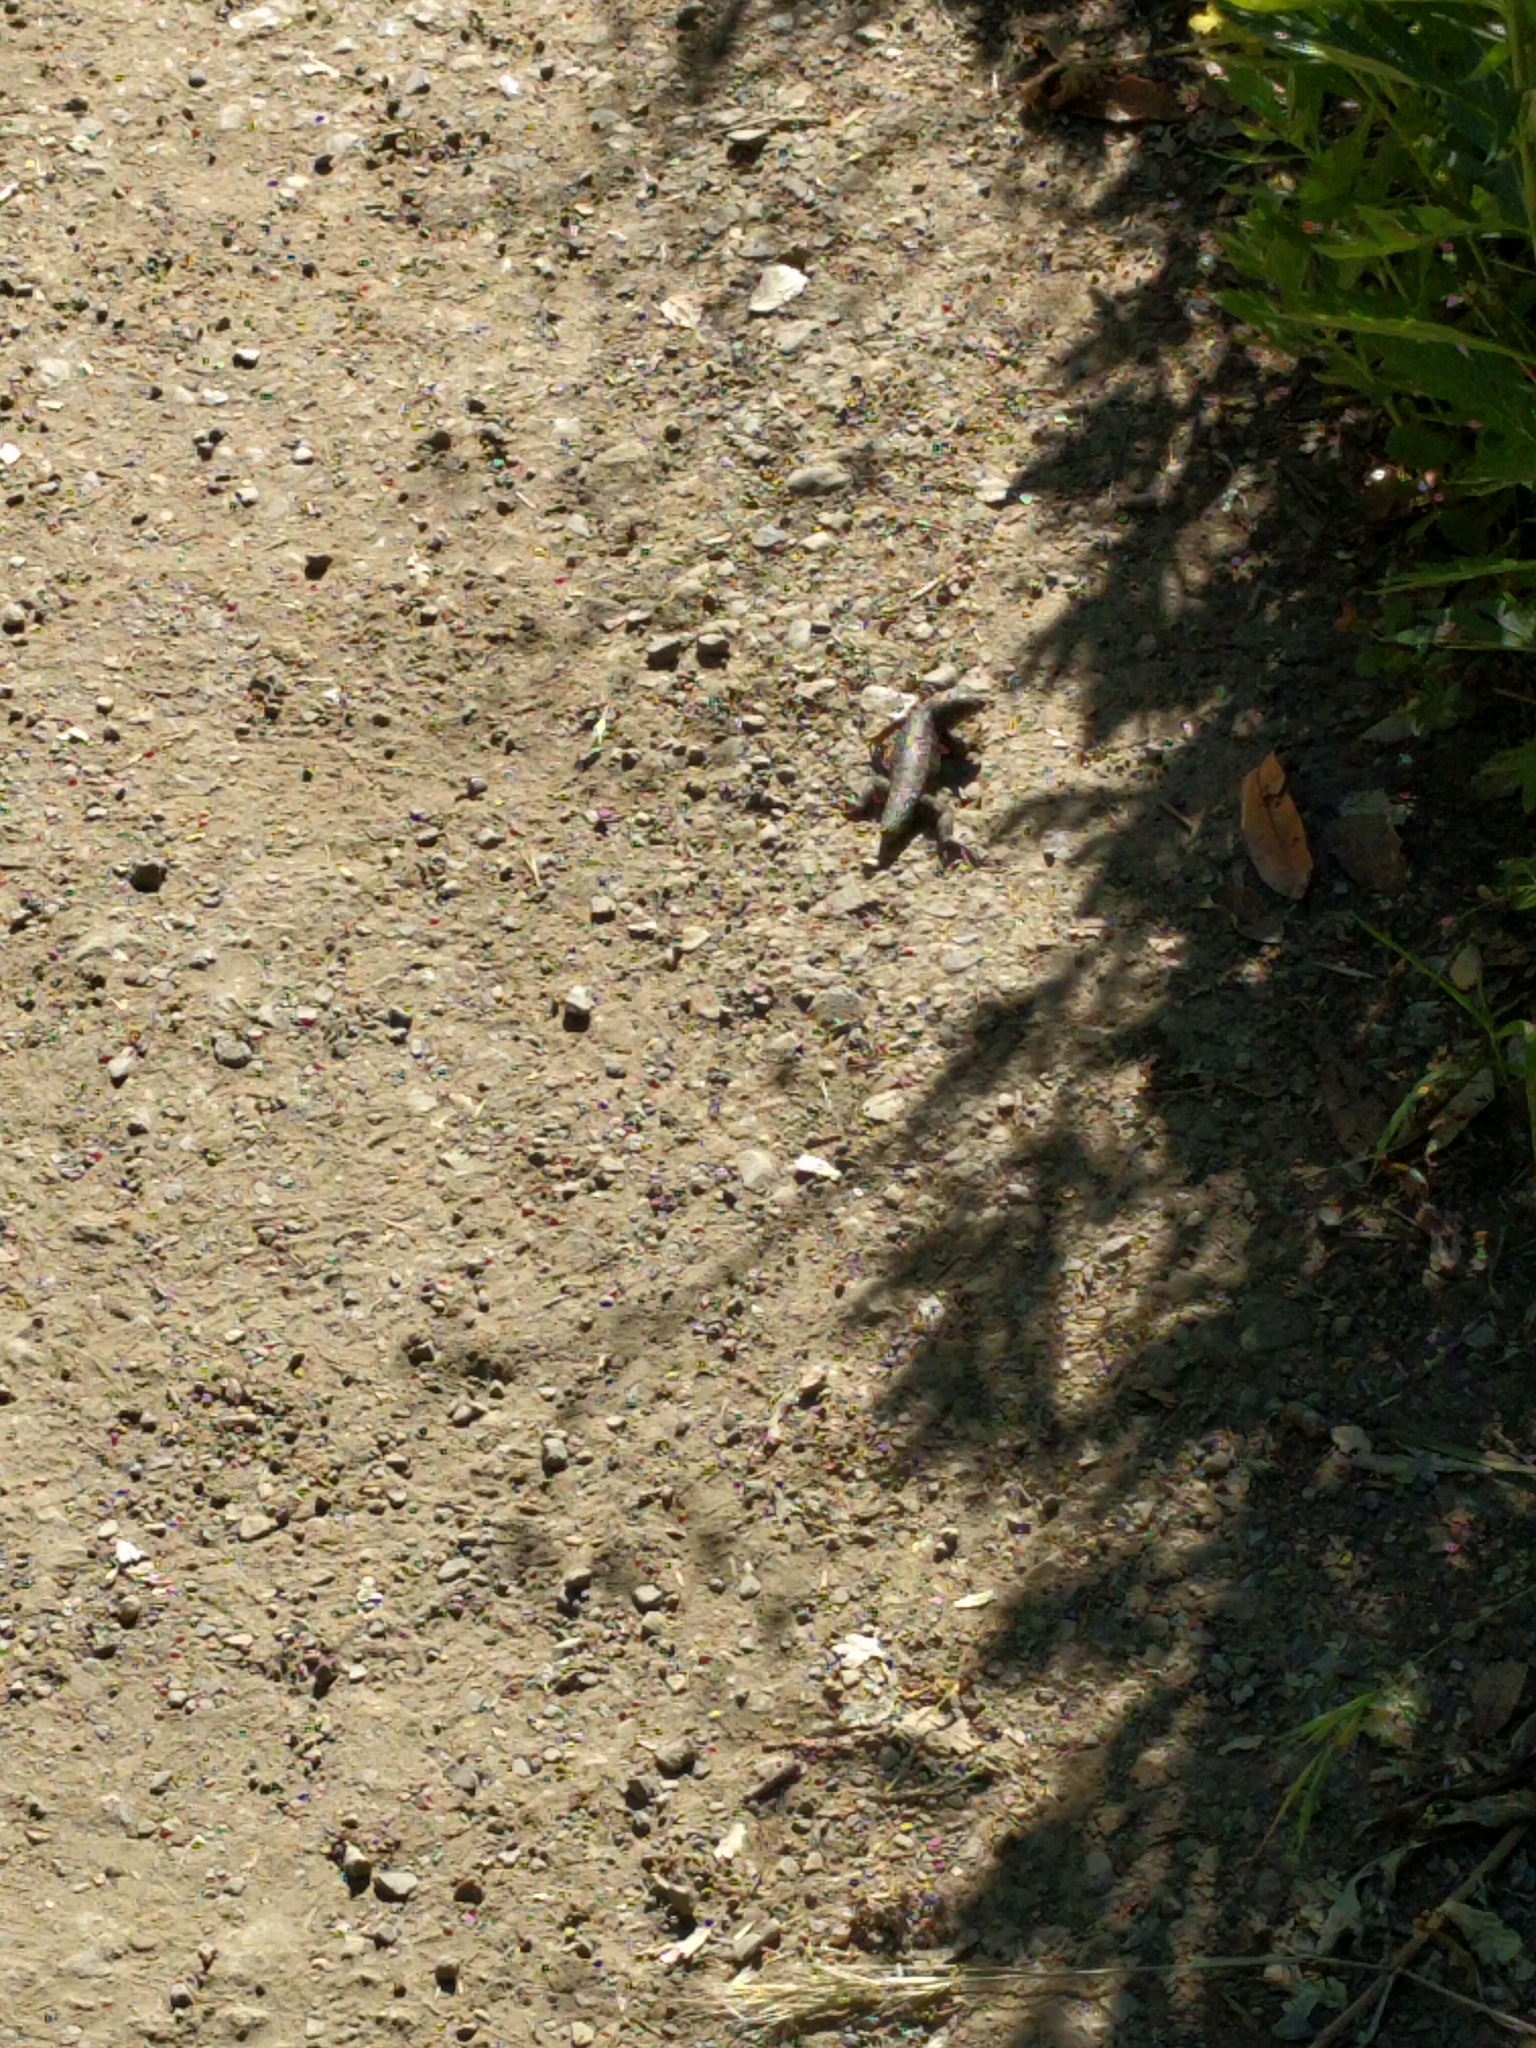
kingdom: Animalia
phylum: Chordata
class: Squamata
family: Phrynosomatidae
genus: Sceloporus
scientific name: Sceloporus occidentalis
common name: Western fence lizard
